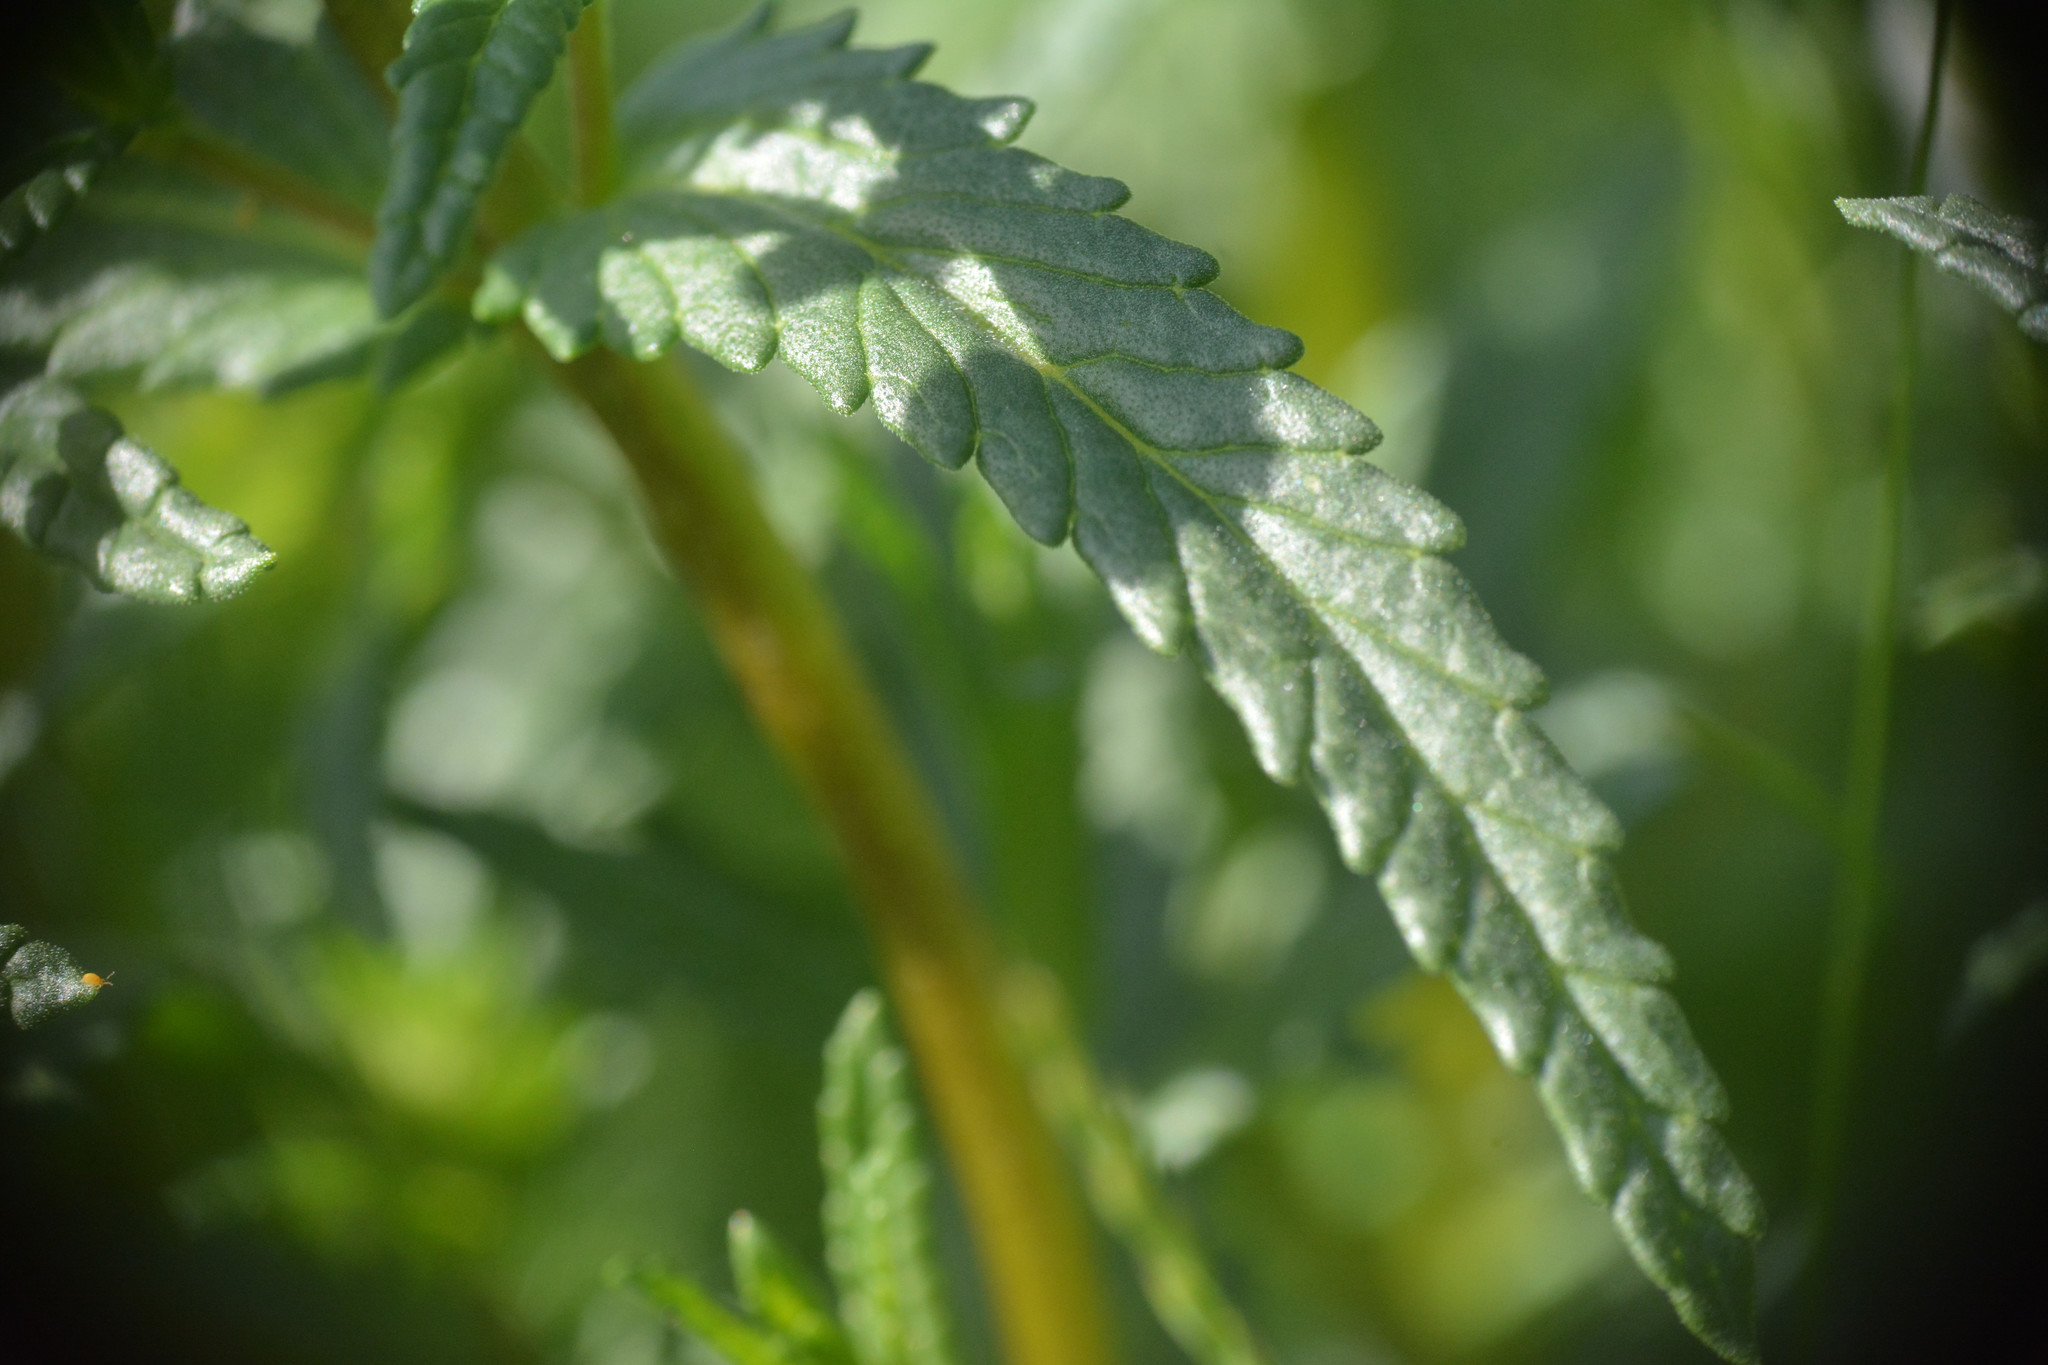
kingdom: Plantae
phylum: Tracheophyta
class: Magnoliopsida
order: Lamiales
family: Orobanchaceae
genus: Rhinanthus
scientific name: Rhinanthus minor
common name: Yellow-rattle
